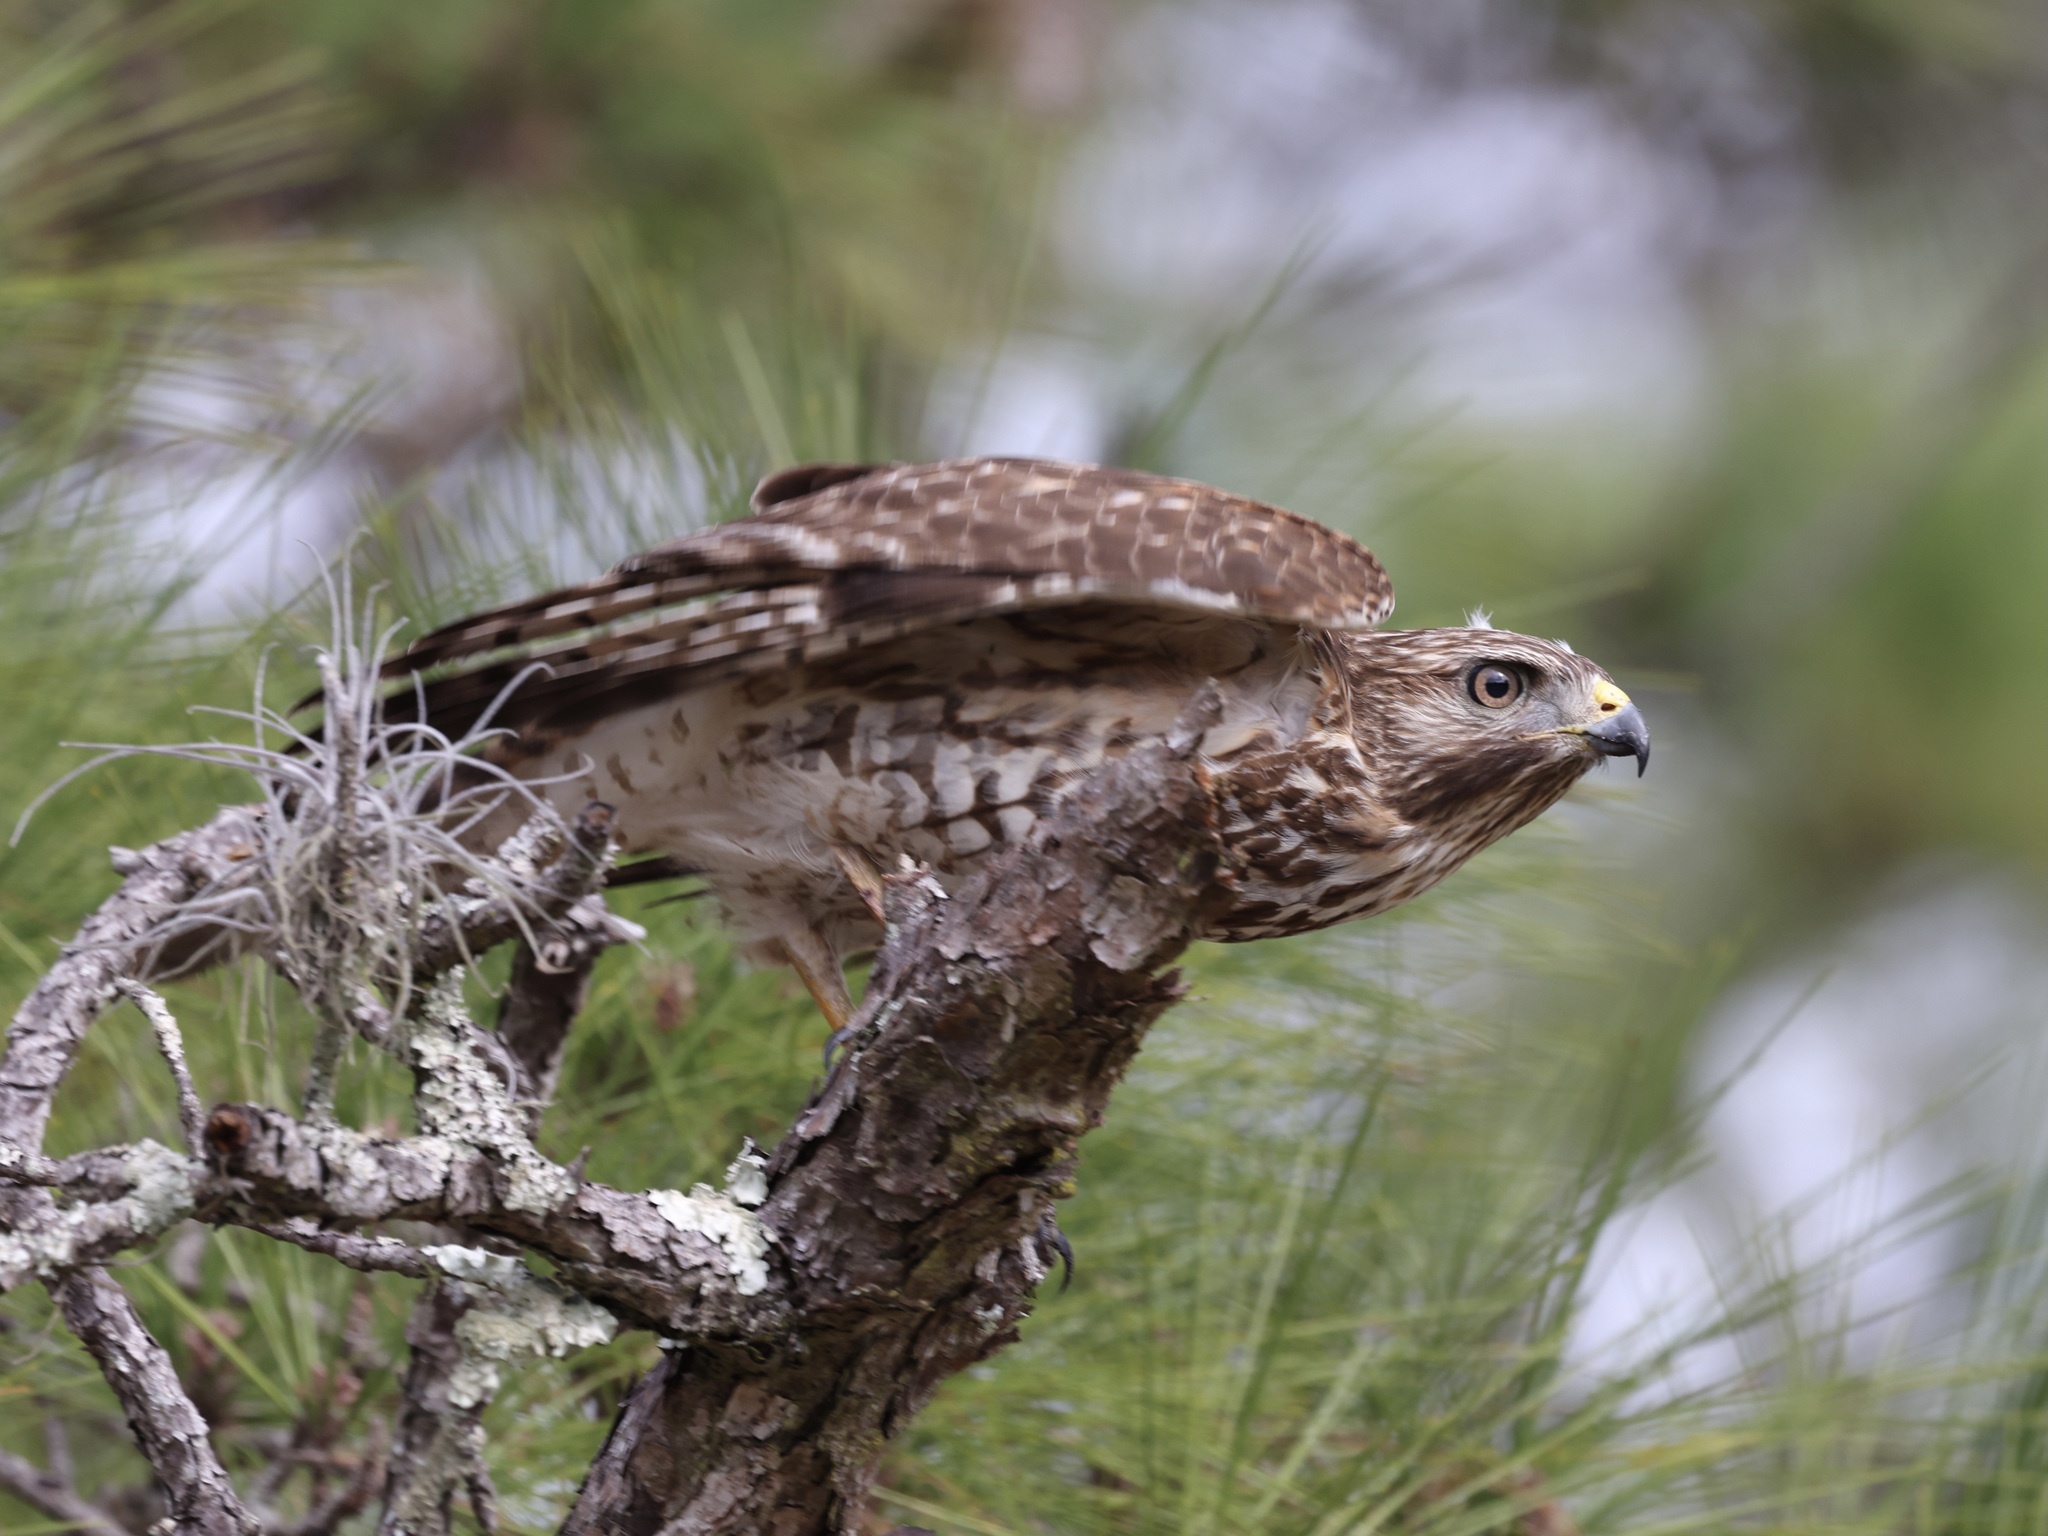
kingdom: Animalia
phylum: Chordata
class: Aves
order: Accipitriformes
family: Accipitridae
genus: Buteo
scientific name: Buteo lineatus
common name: Red-shouldered hawk
